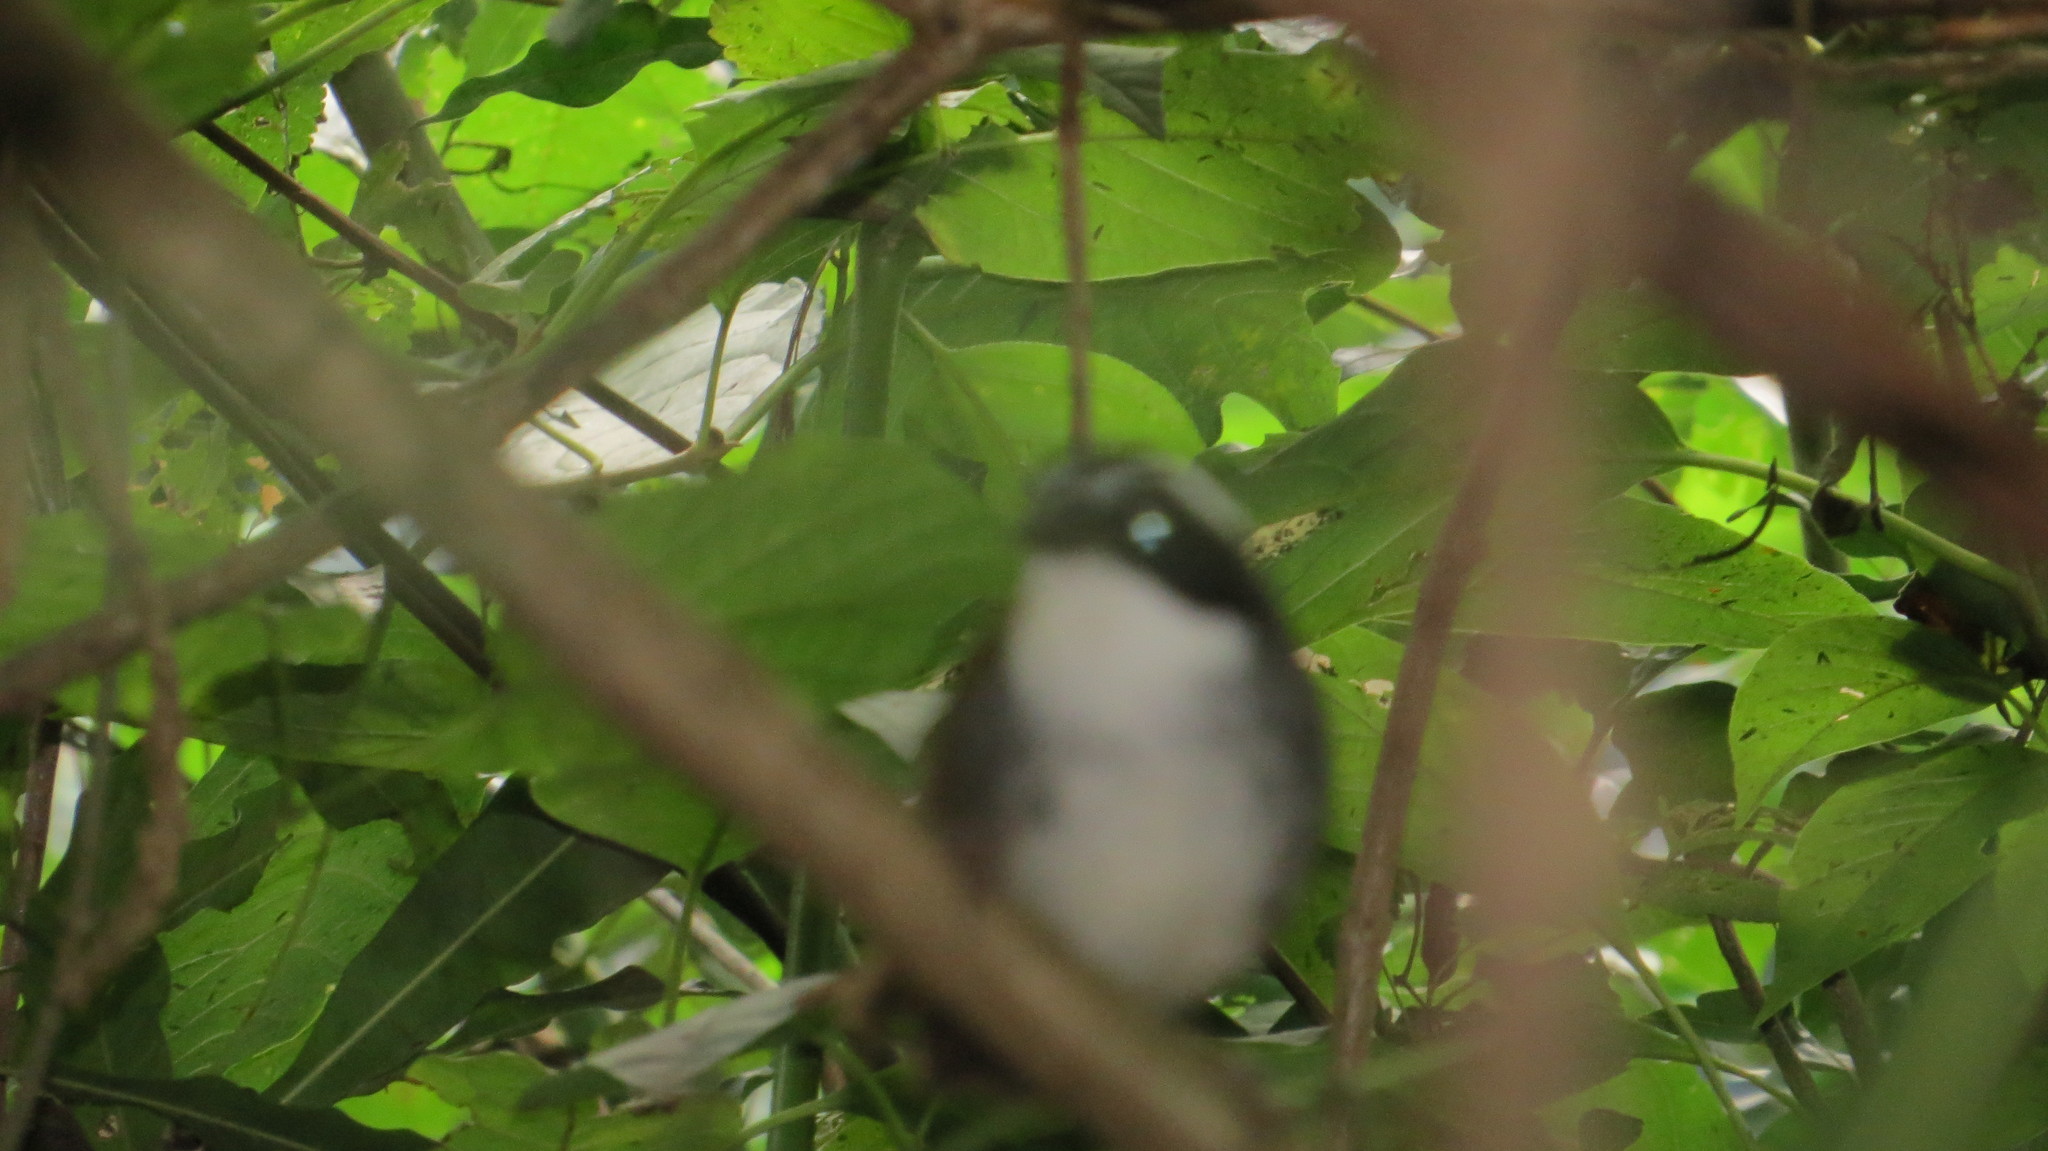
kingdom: Animalia
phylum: Chordata
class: Aves
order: Passeriformes
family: Passerellidae
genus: Arremon
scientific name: Arremon torquatus
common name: White-browed brushfinch
